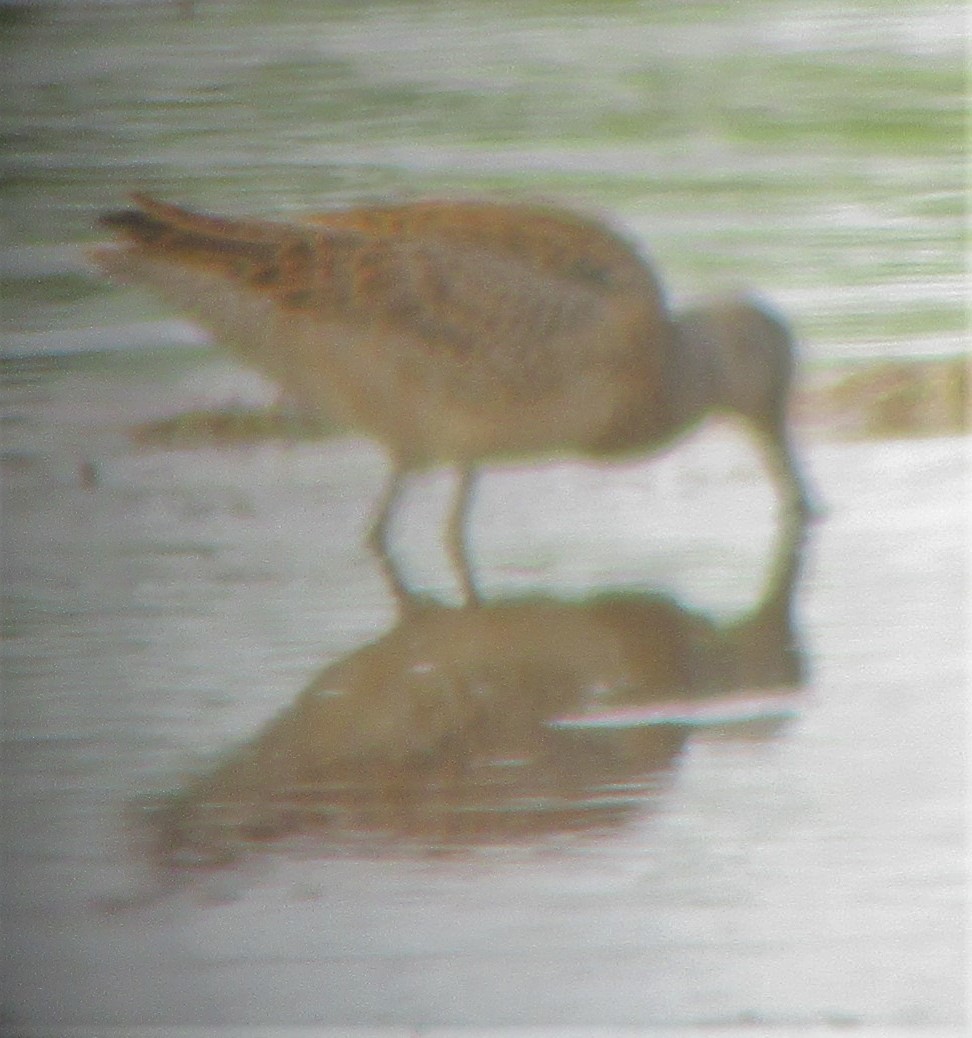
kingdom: Animalia
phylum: Chordata
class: Aves
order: Charadriiformes
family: Scolopacidae
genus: Limnodromus
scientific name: Limnodromus griseus
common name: Short-billed dowitcher
